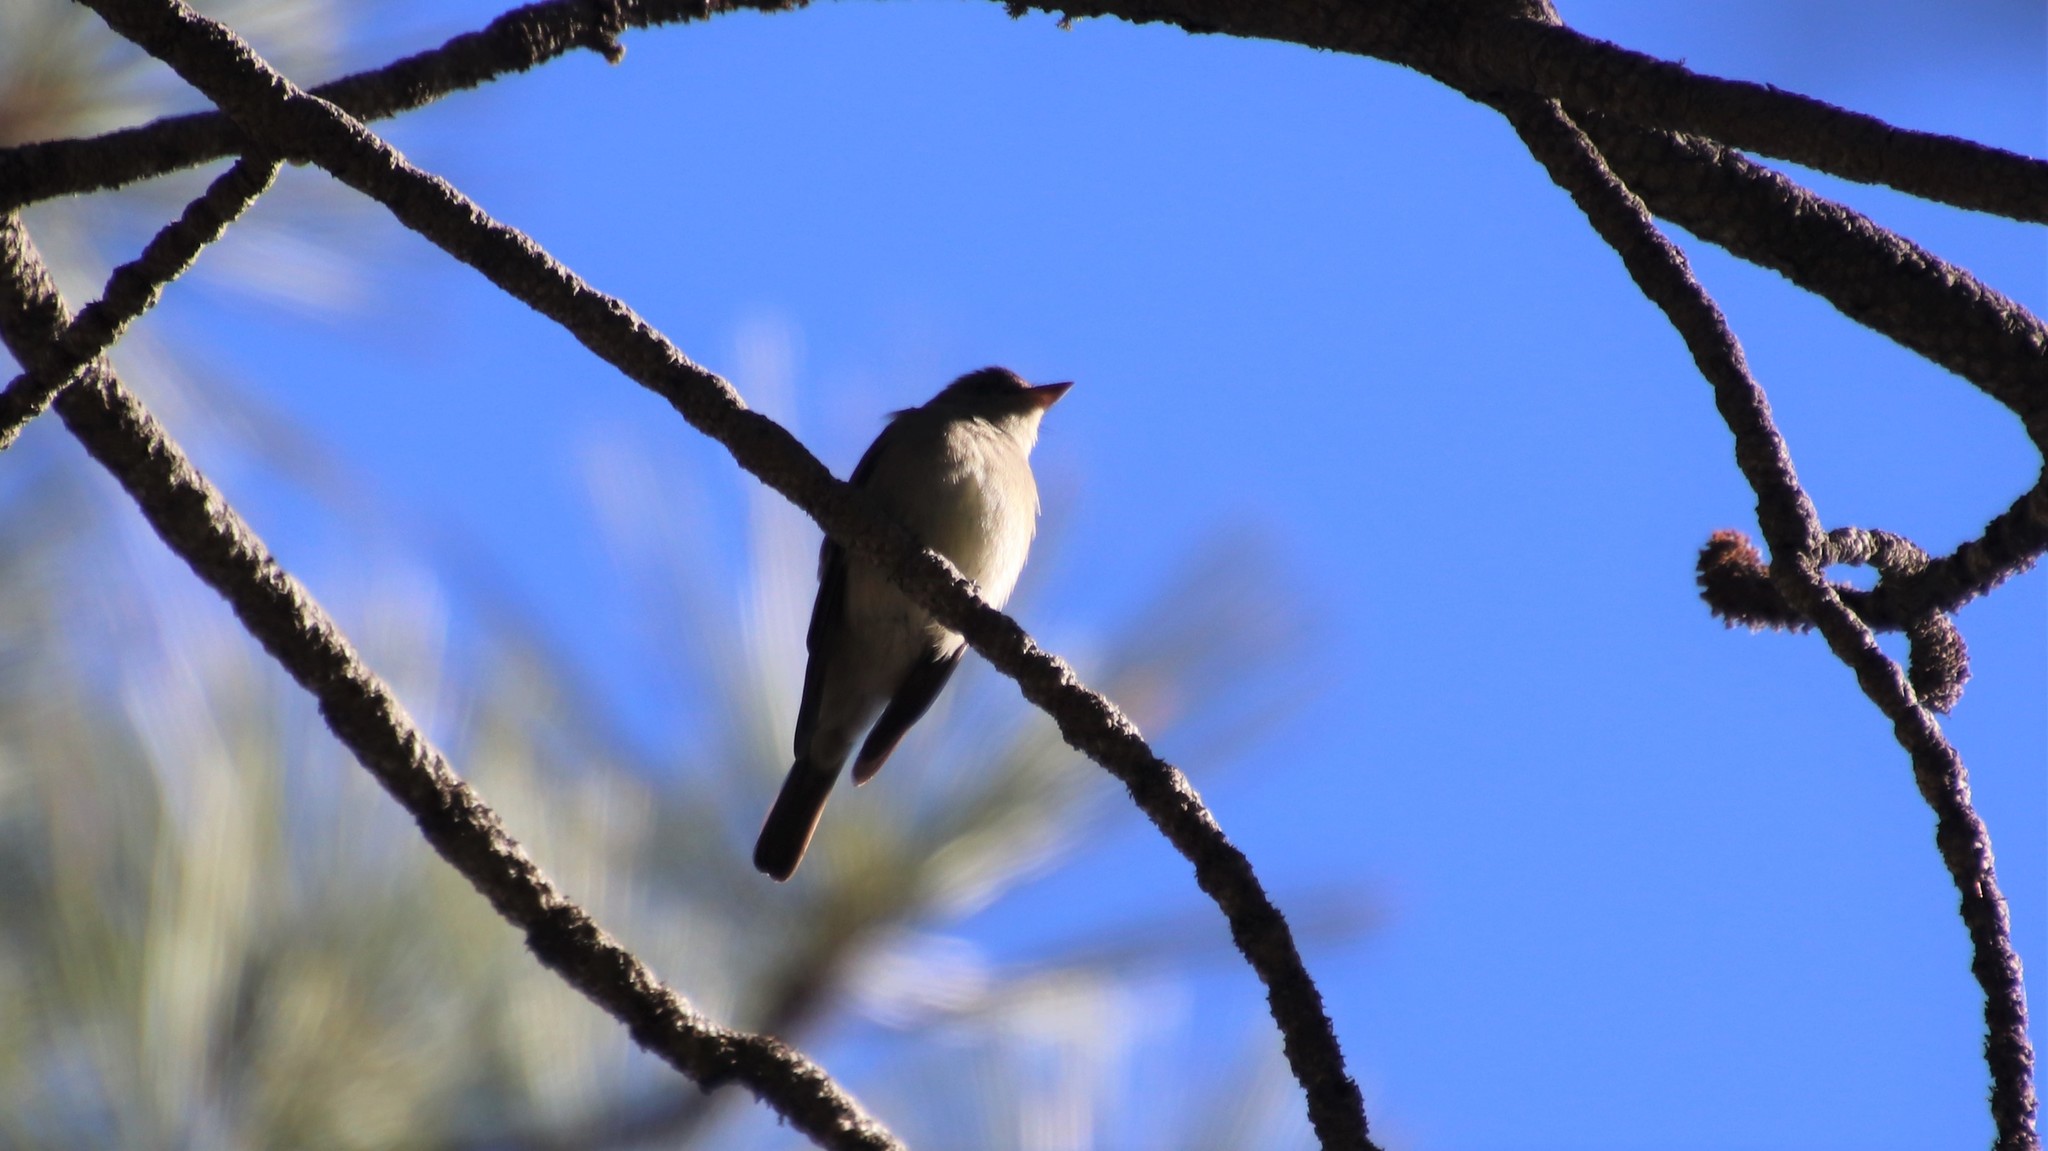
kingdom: Animalia
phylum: Chordata
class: Aves
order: Passeriformes
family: Tyrannidae
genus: Contopus
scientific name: Contopus sordidulus
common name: Western wood-pewee
